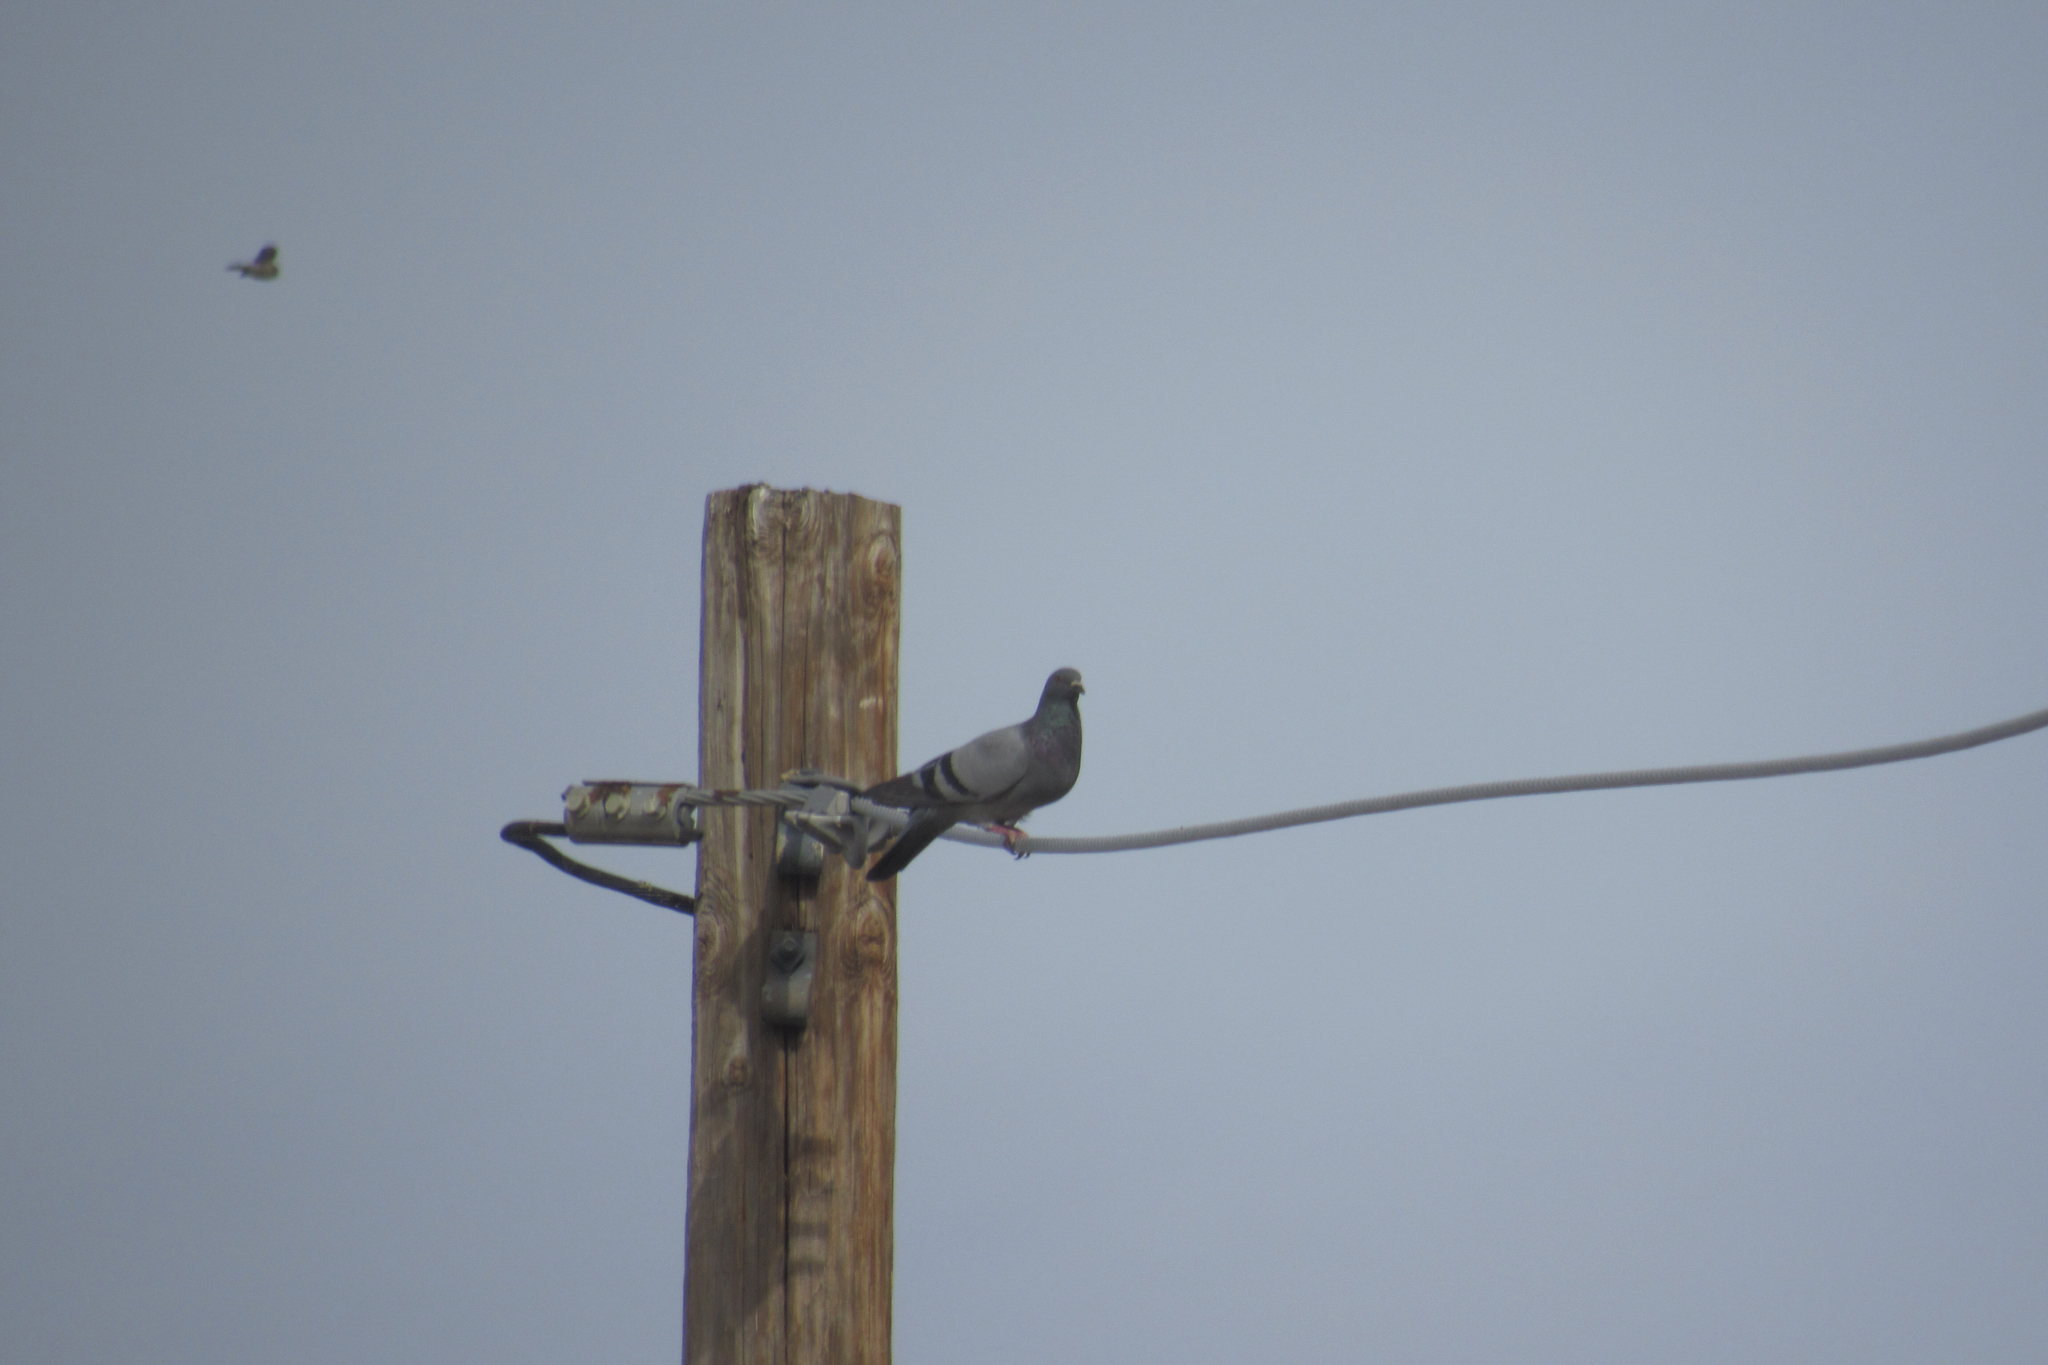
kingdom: Animalia
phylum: Chordata
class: Aves
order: Columbiformes
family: Columbidae
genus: Columba
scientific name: Columba livia
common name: Rock pigeon
